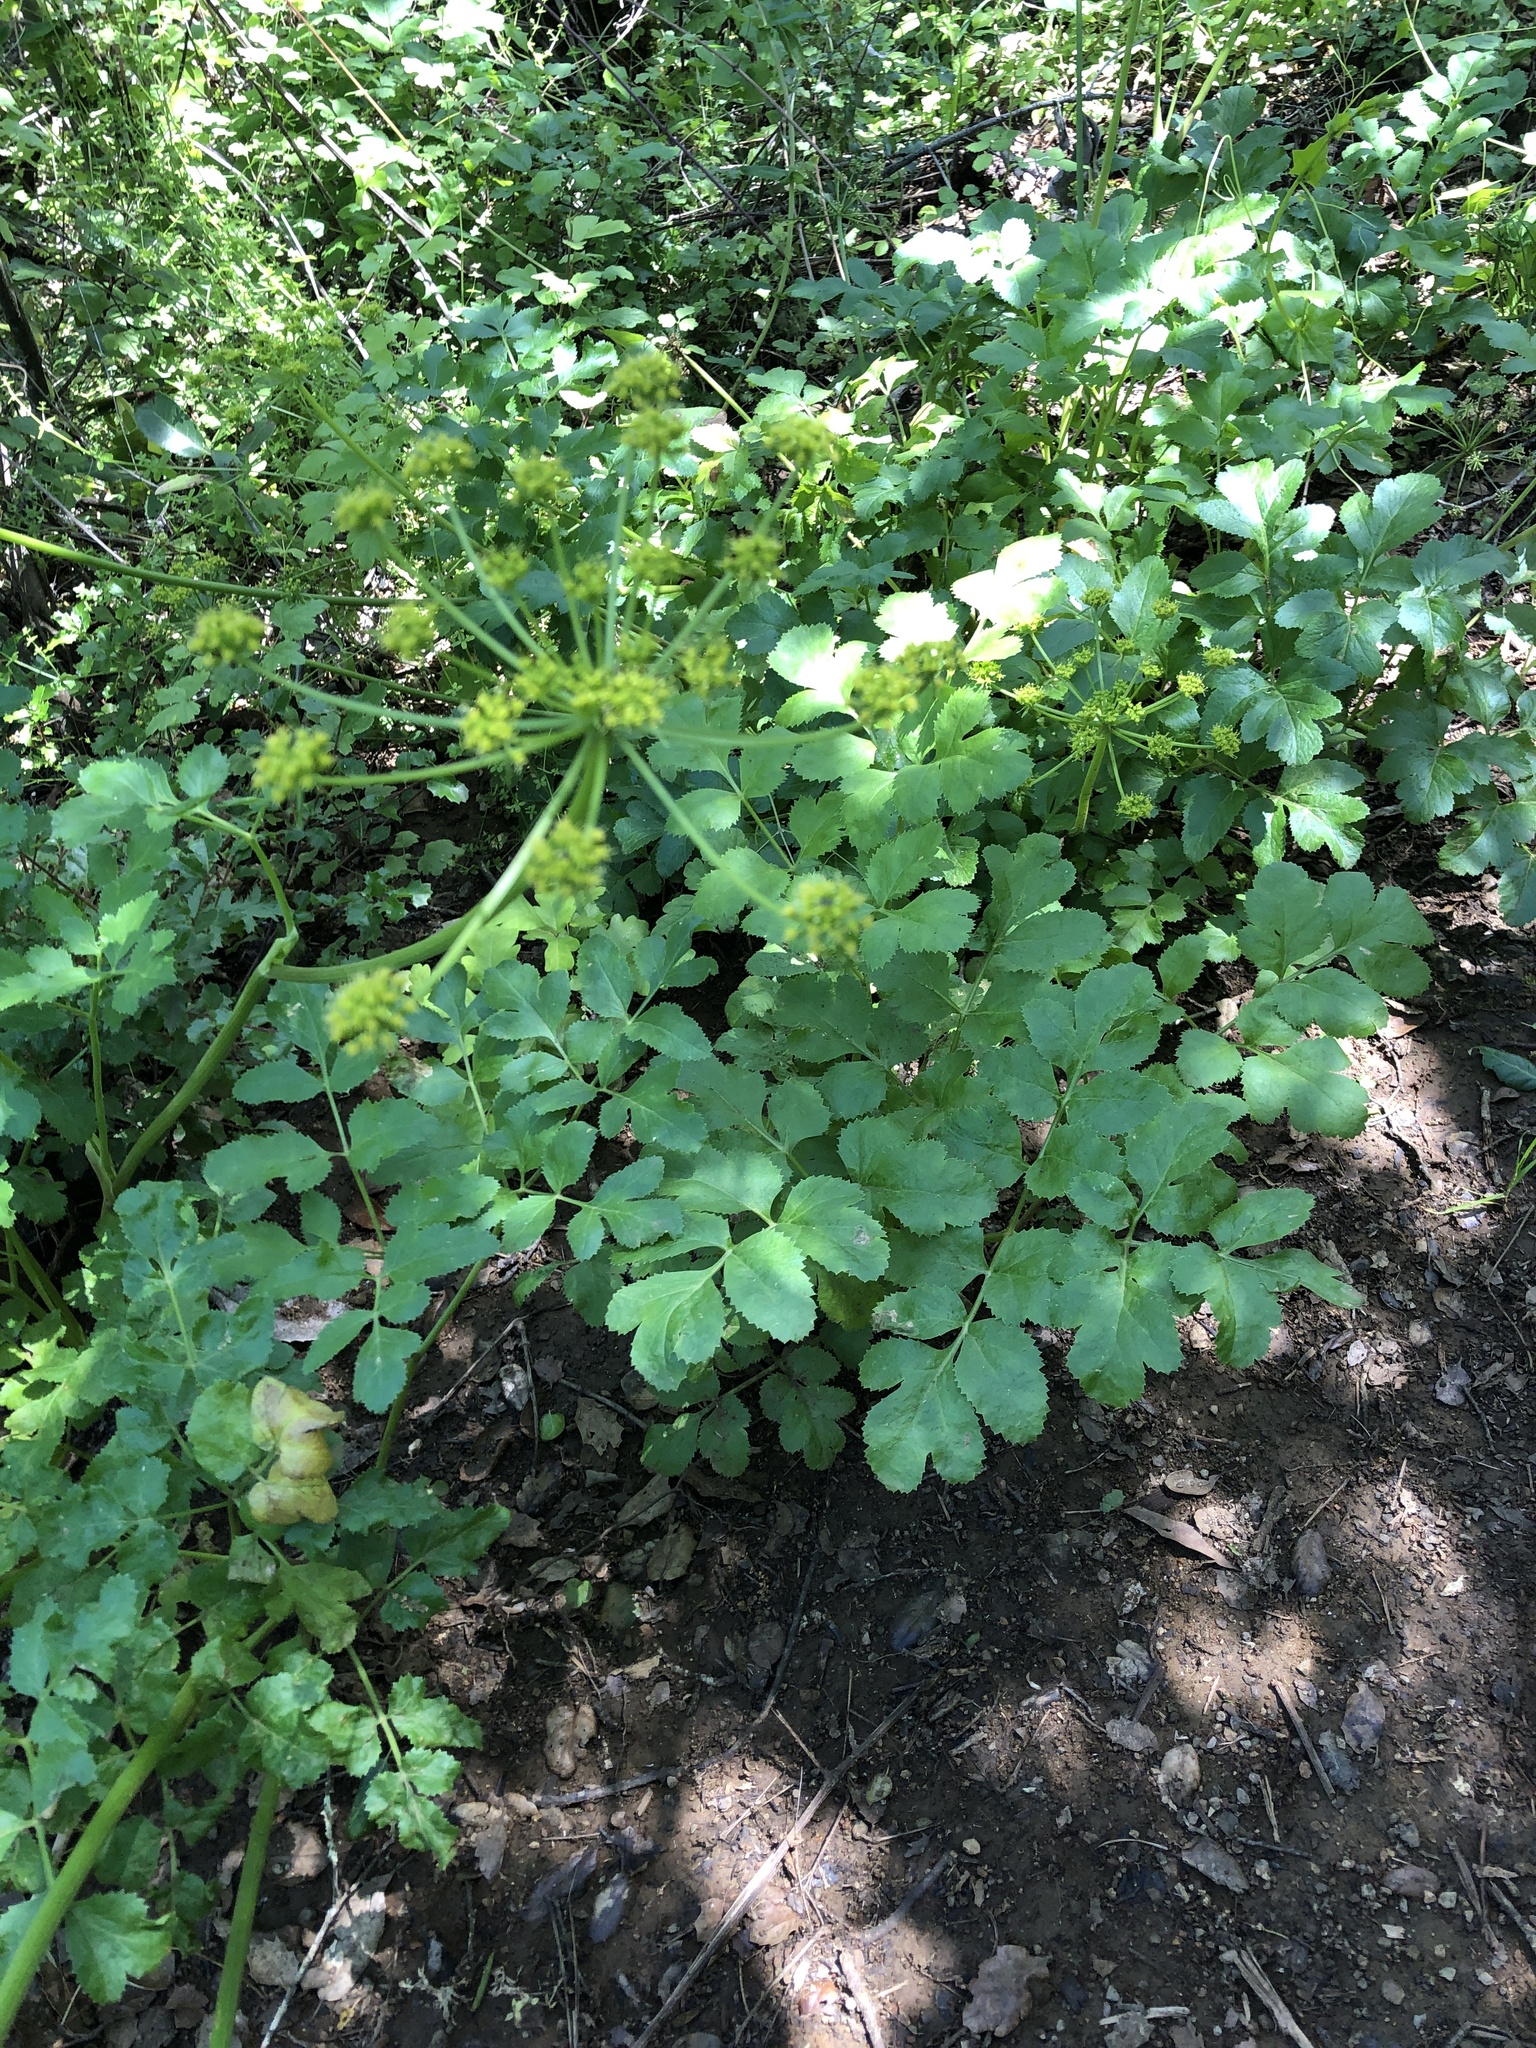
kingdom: Plantae
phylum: Tracheophyta
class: Magnoliopsida
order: Apiales
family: Apiaceae
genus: Tauschia
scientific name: Tauschia hartwegii
